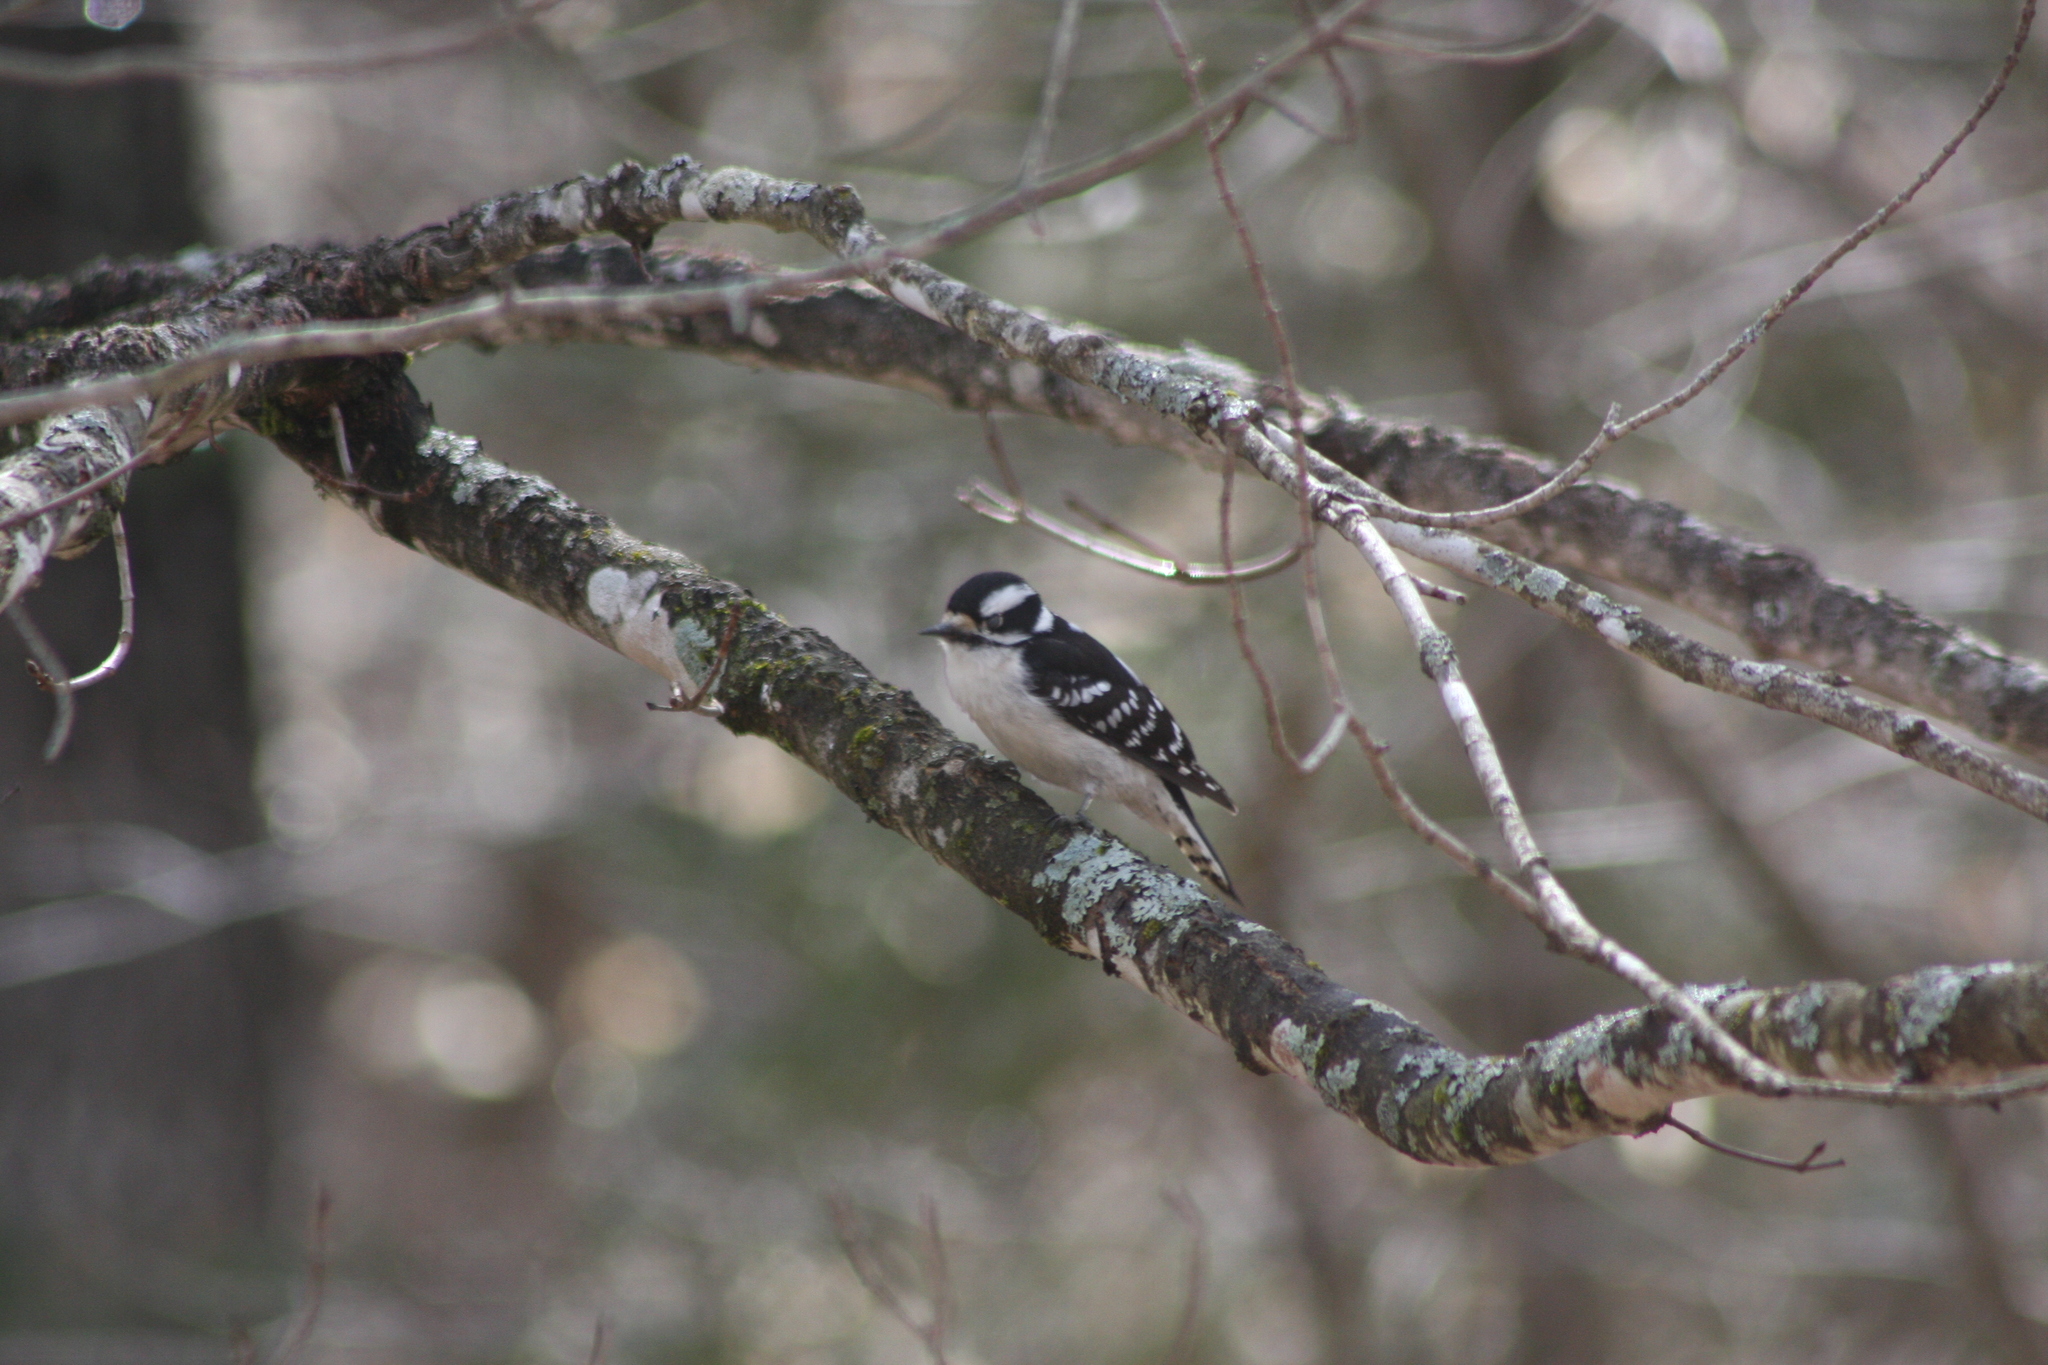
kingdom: Animalia
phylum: Chordata
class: Aves
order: Piciformes
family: Picidae
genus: Dryobates
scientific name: Dryobates pubescens
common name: Downy woodpecker
